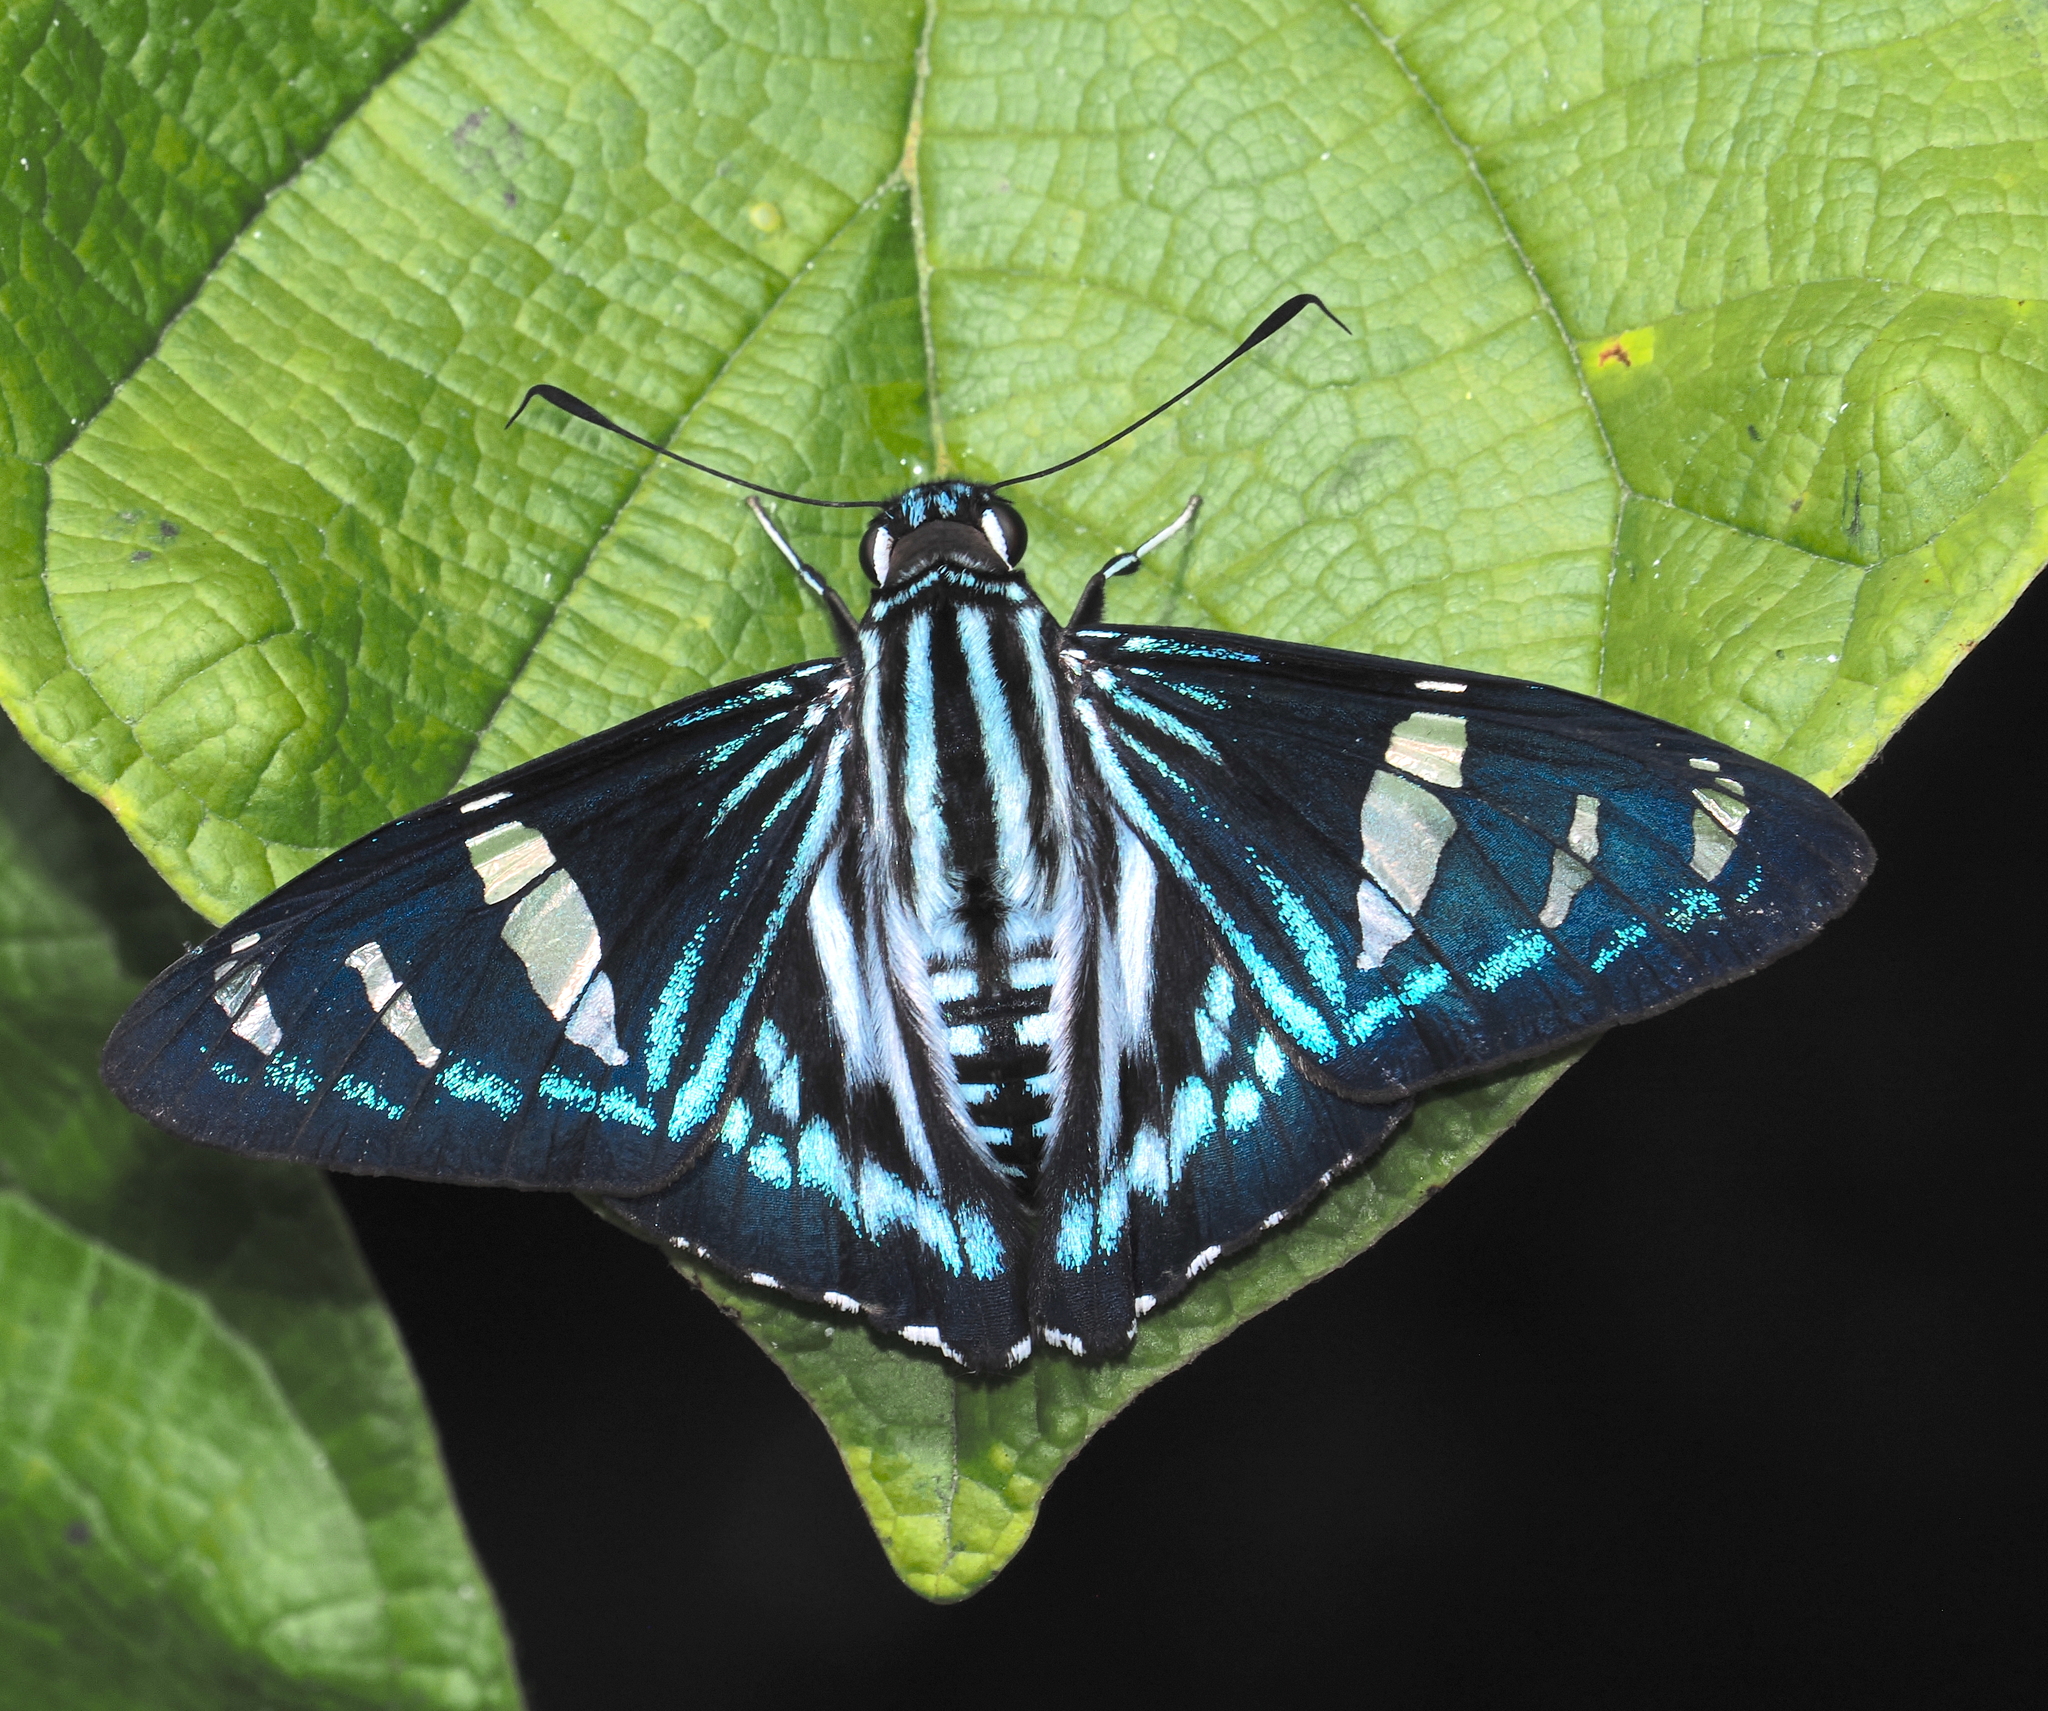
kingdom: Animalia
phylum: Arthropoda
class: Insecta
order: Lepidoptera
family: Hesperiidae
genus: Phocides
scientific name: Phocides pigmalion
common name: Mangrove skipper
